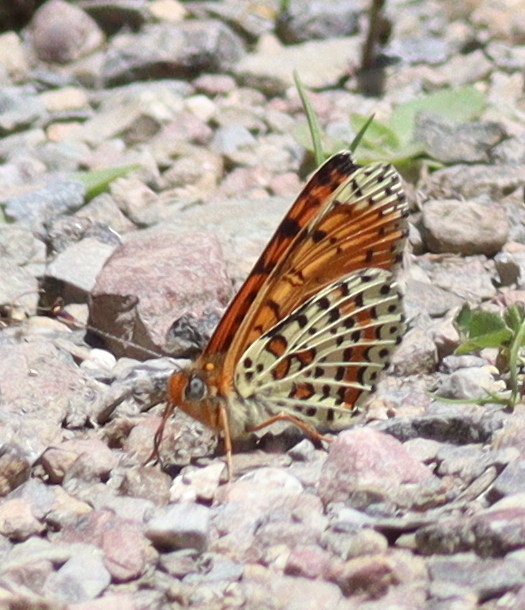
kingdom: Animalia
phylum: Arthropoda
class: Insecta
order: Lepidoptera
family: Nymphalidae
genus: Melitaea
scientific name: Melitaea didyma
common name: Spotted fritillary
